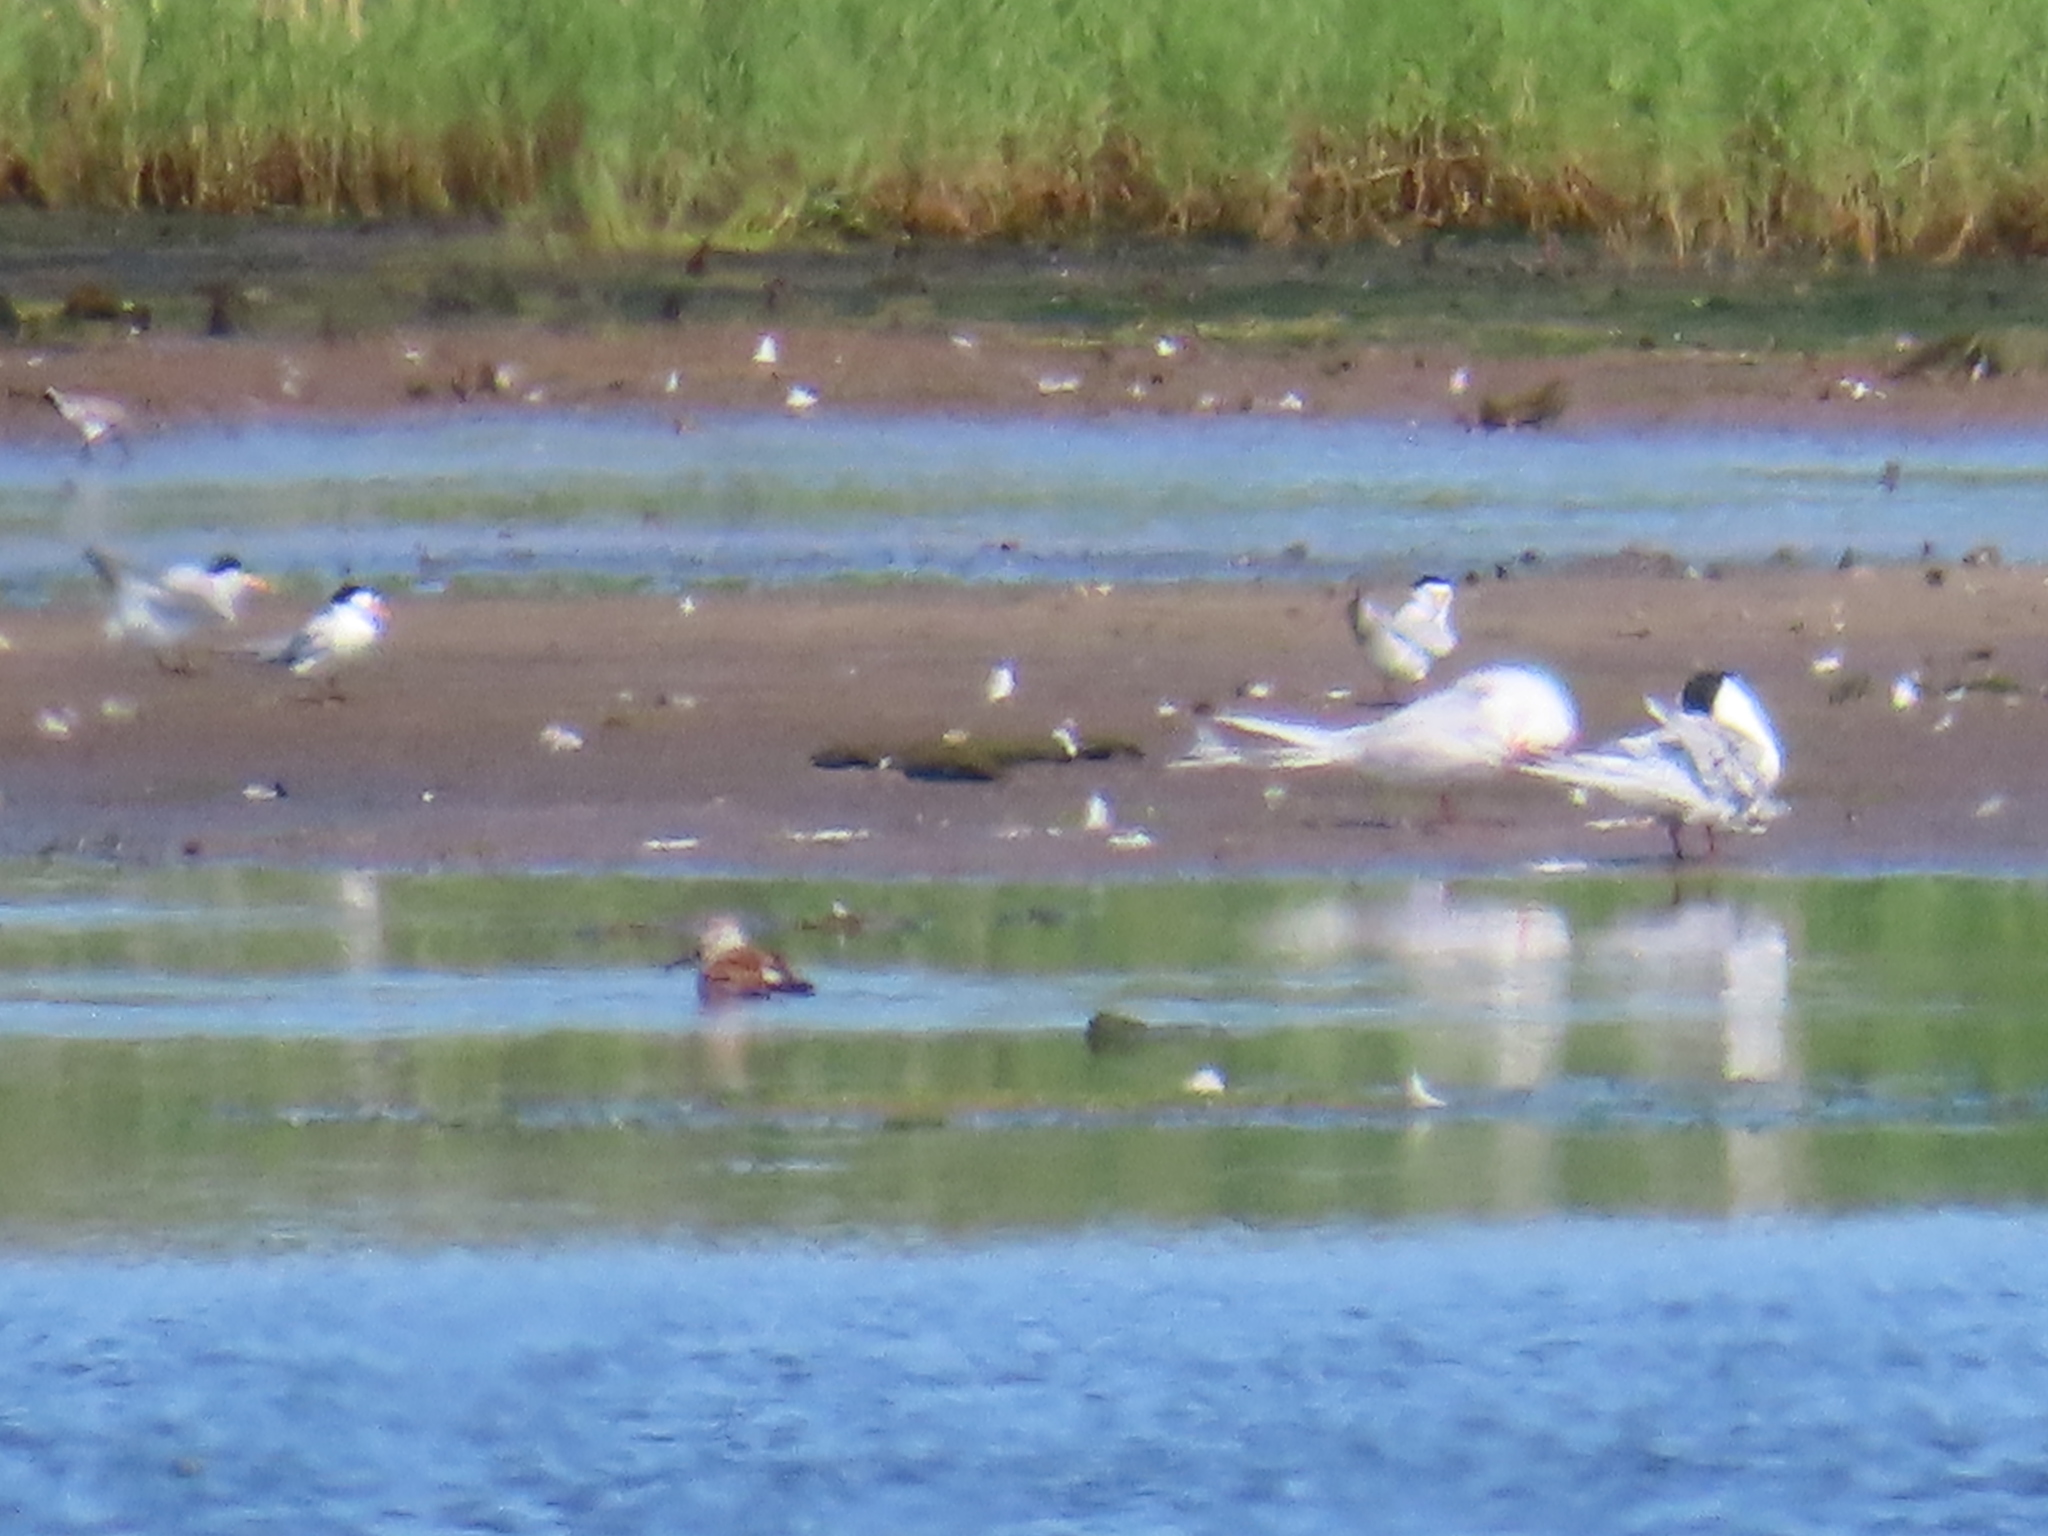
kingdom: Animalia
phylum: Chordata
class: Aves
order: Charadriiformes
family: Laridae
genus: Sternula
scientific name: Sternula antillarum
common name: Least tern
